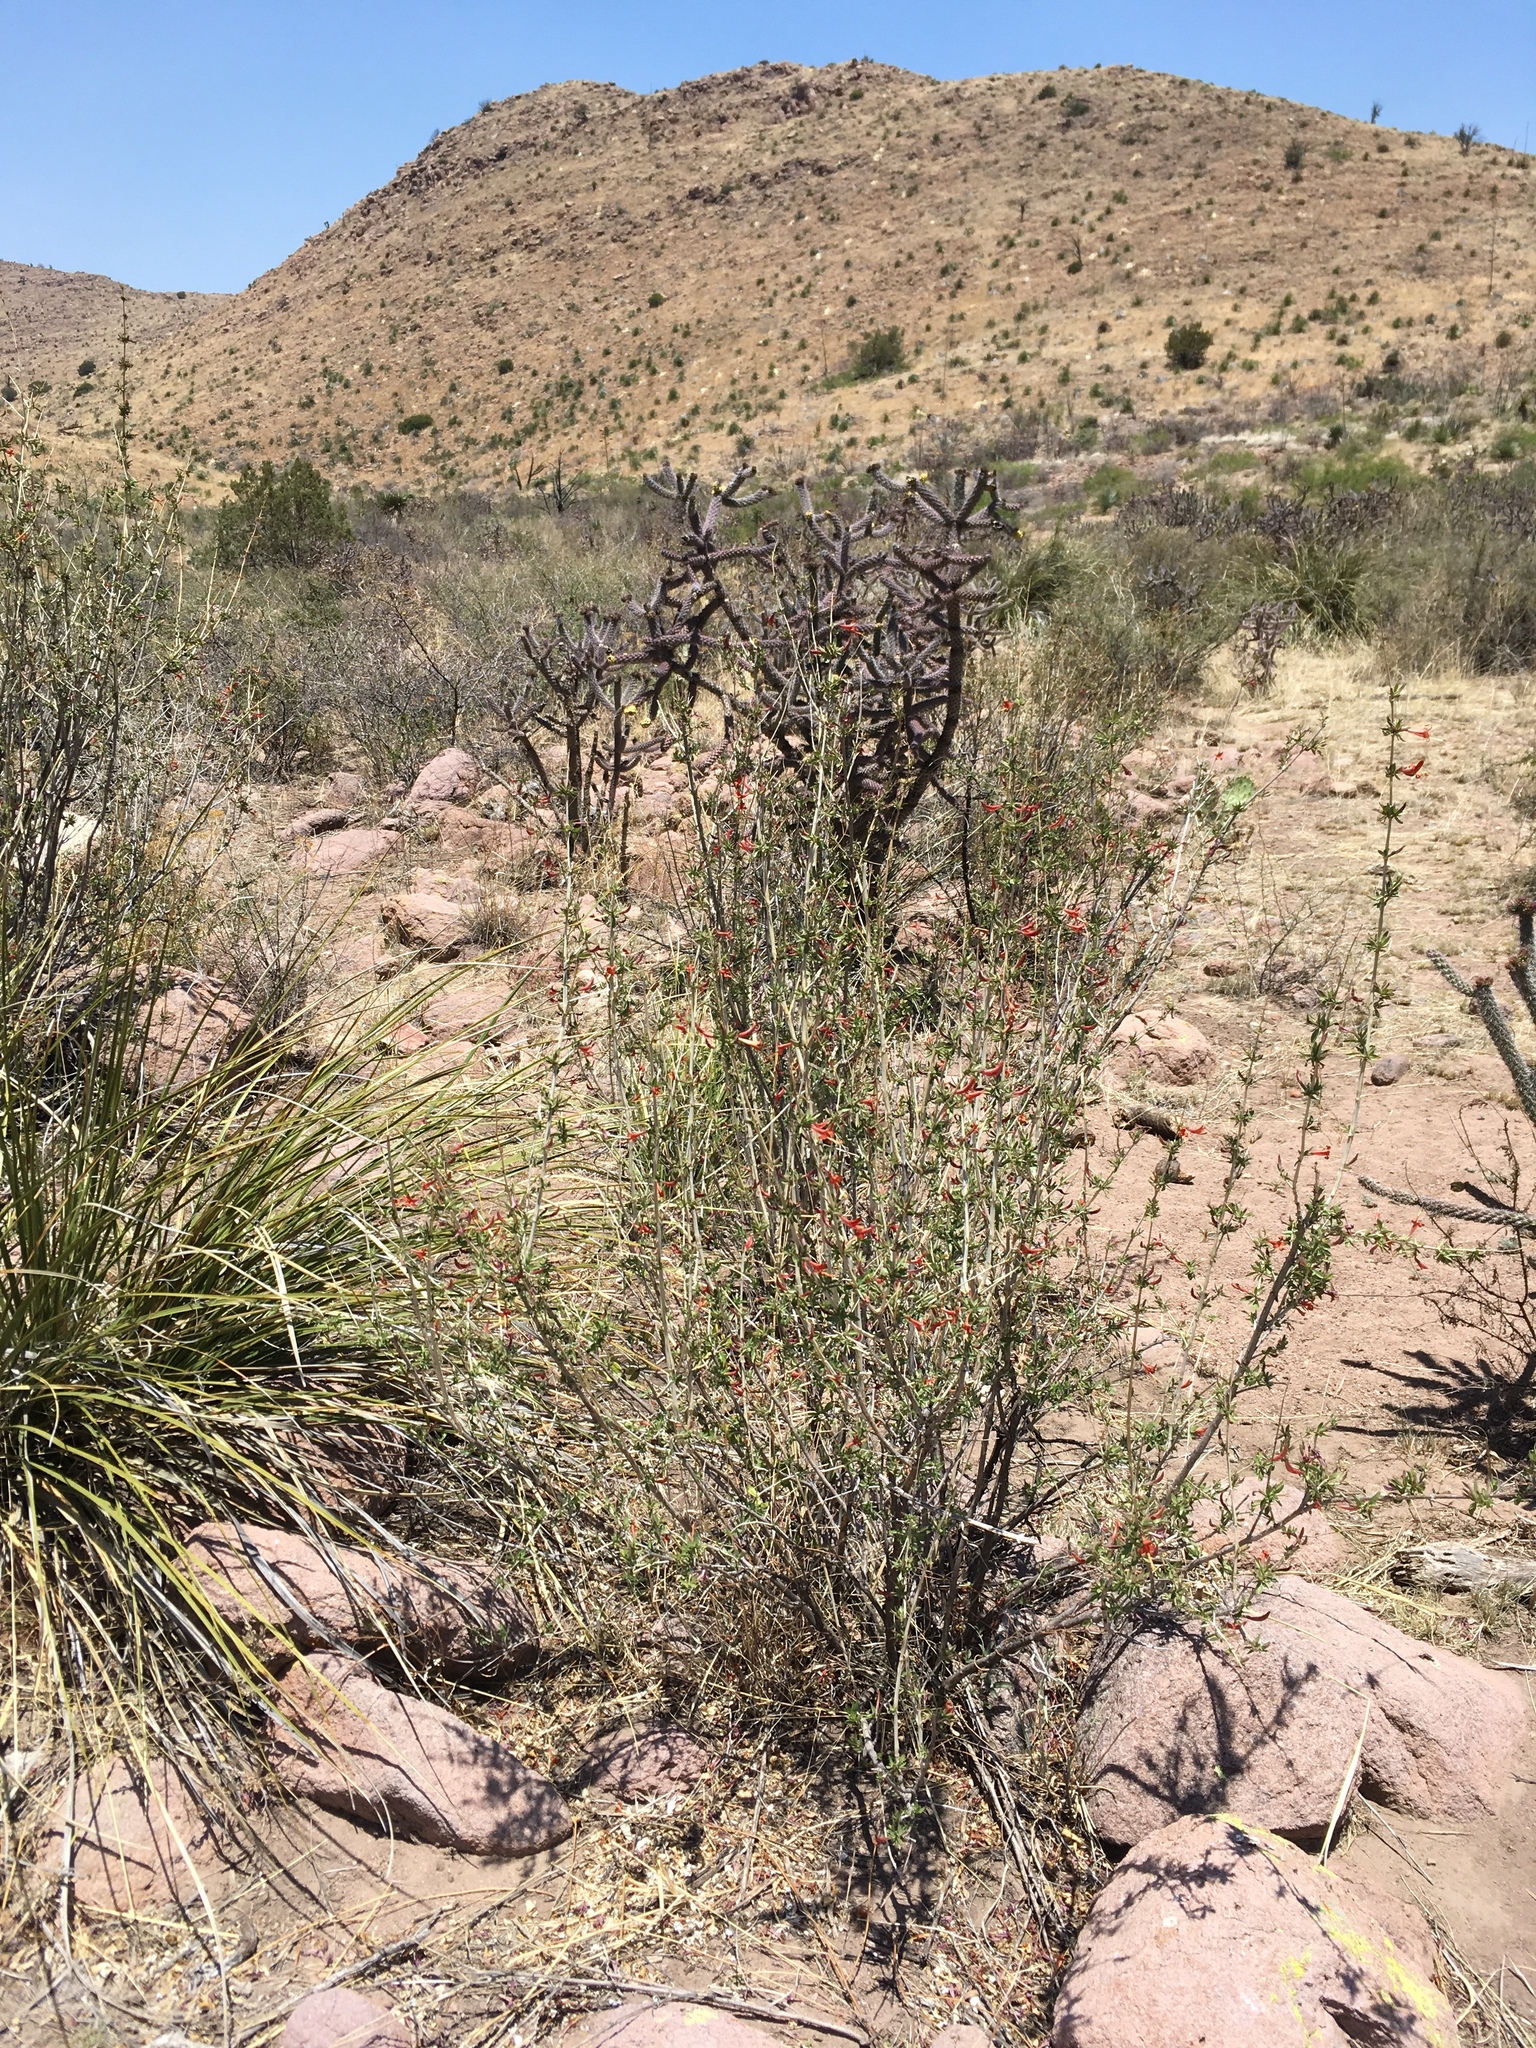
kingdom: Plantae
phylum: Tracheophyta
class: Magnoliopsida
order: Lamiales
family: Acanthaceae
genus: Anisacanthus
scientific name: Anisacanthus thurberi
